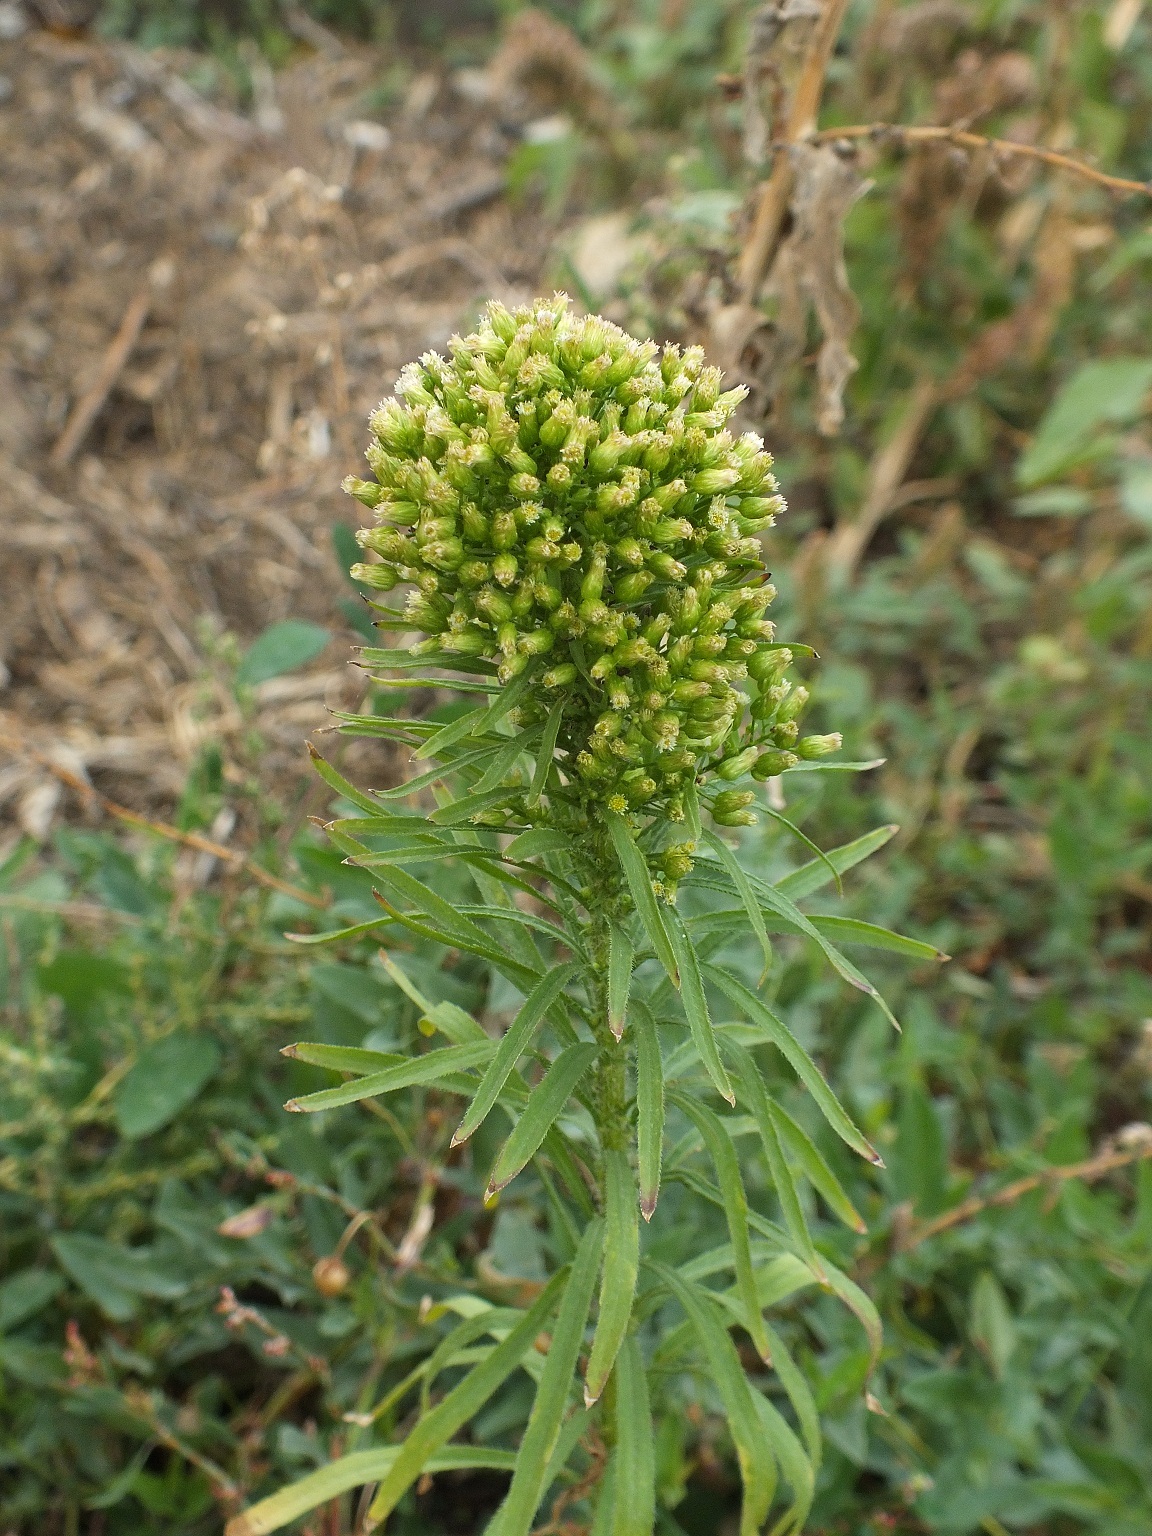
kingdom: Plantae
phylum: Tracheophyta
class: Magnoliopsida
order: Asterales
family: Asteraceae
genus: Erigeron
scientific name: Erigeron canadensis
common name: Canadian fleabane
